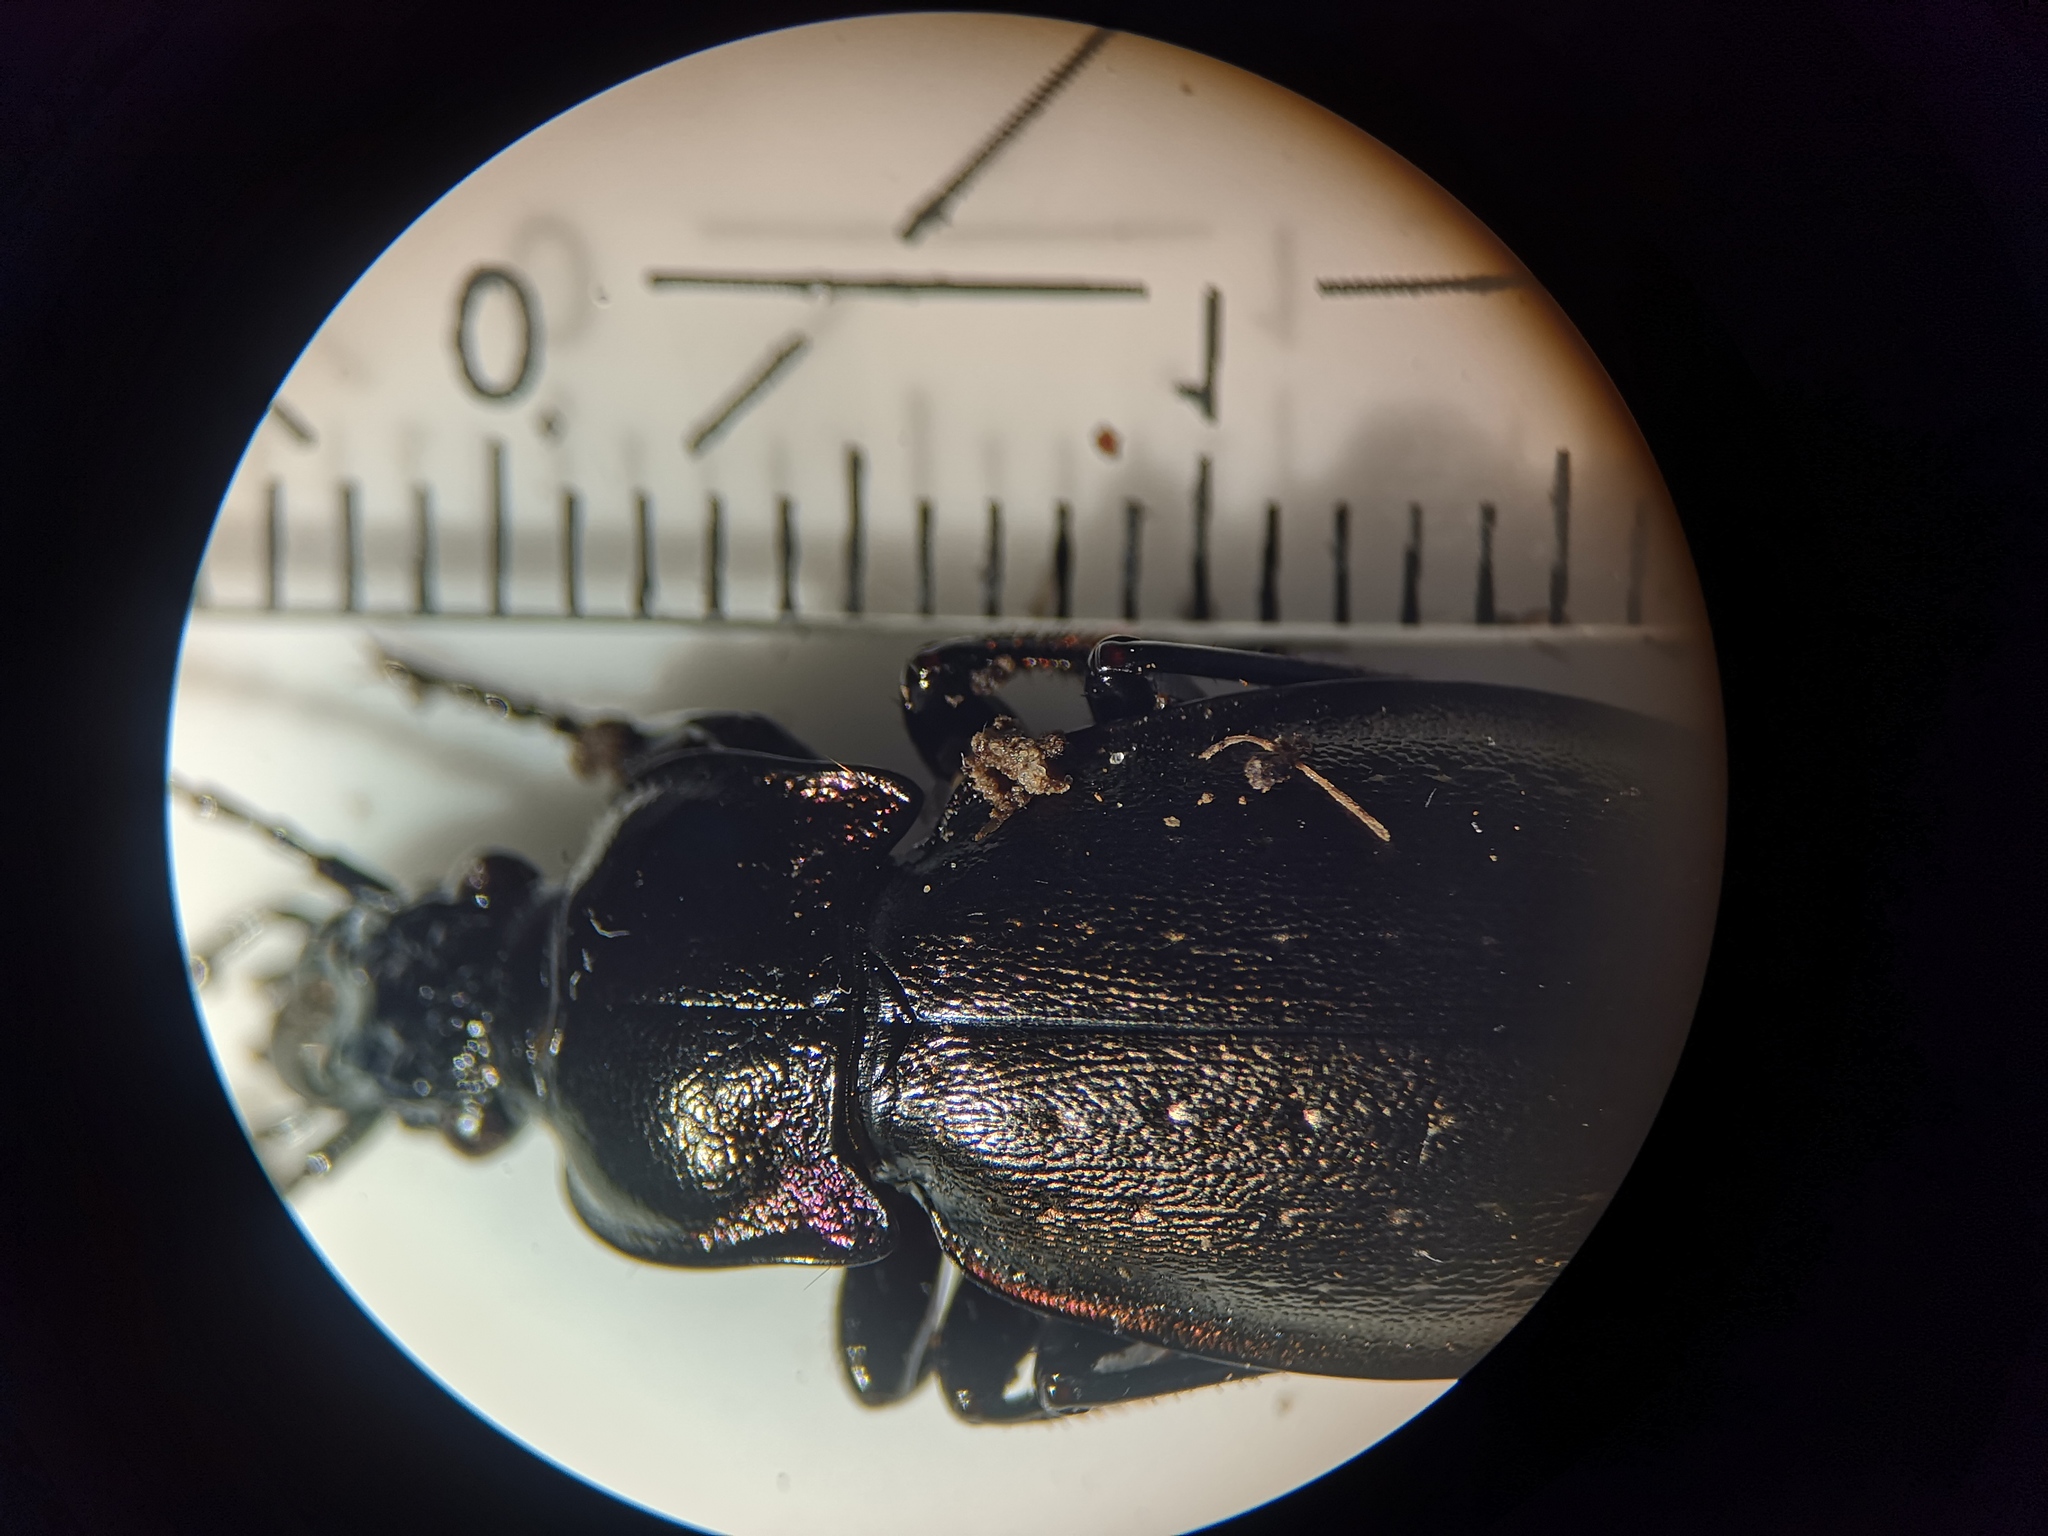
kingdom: Animalia
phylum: Arthropoda
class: Insecta
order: Coleoptera
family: Carabidae
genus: Carabus
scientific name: Carabus nemoralis
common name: European ground beetle
